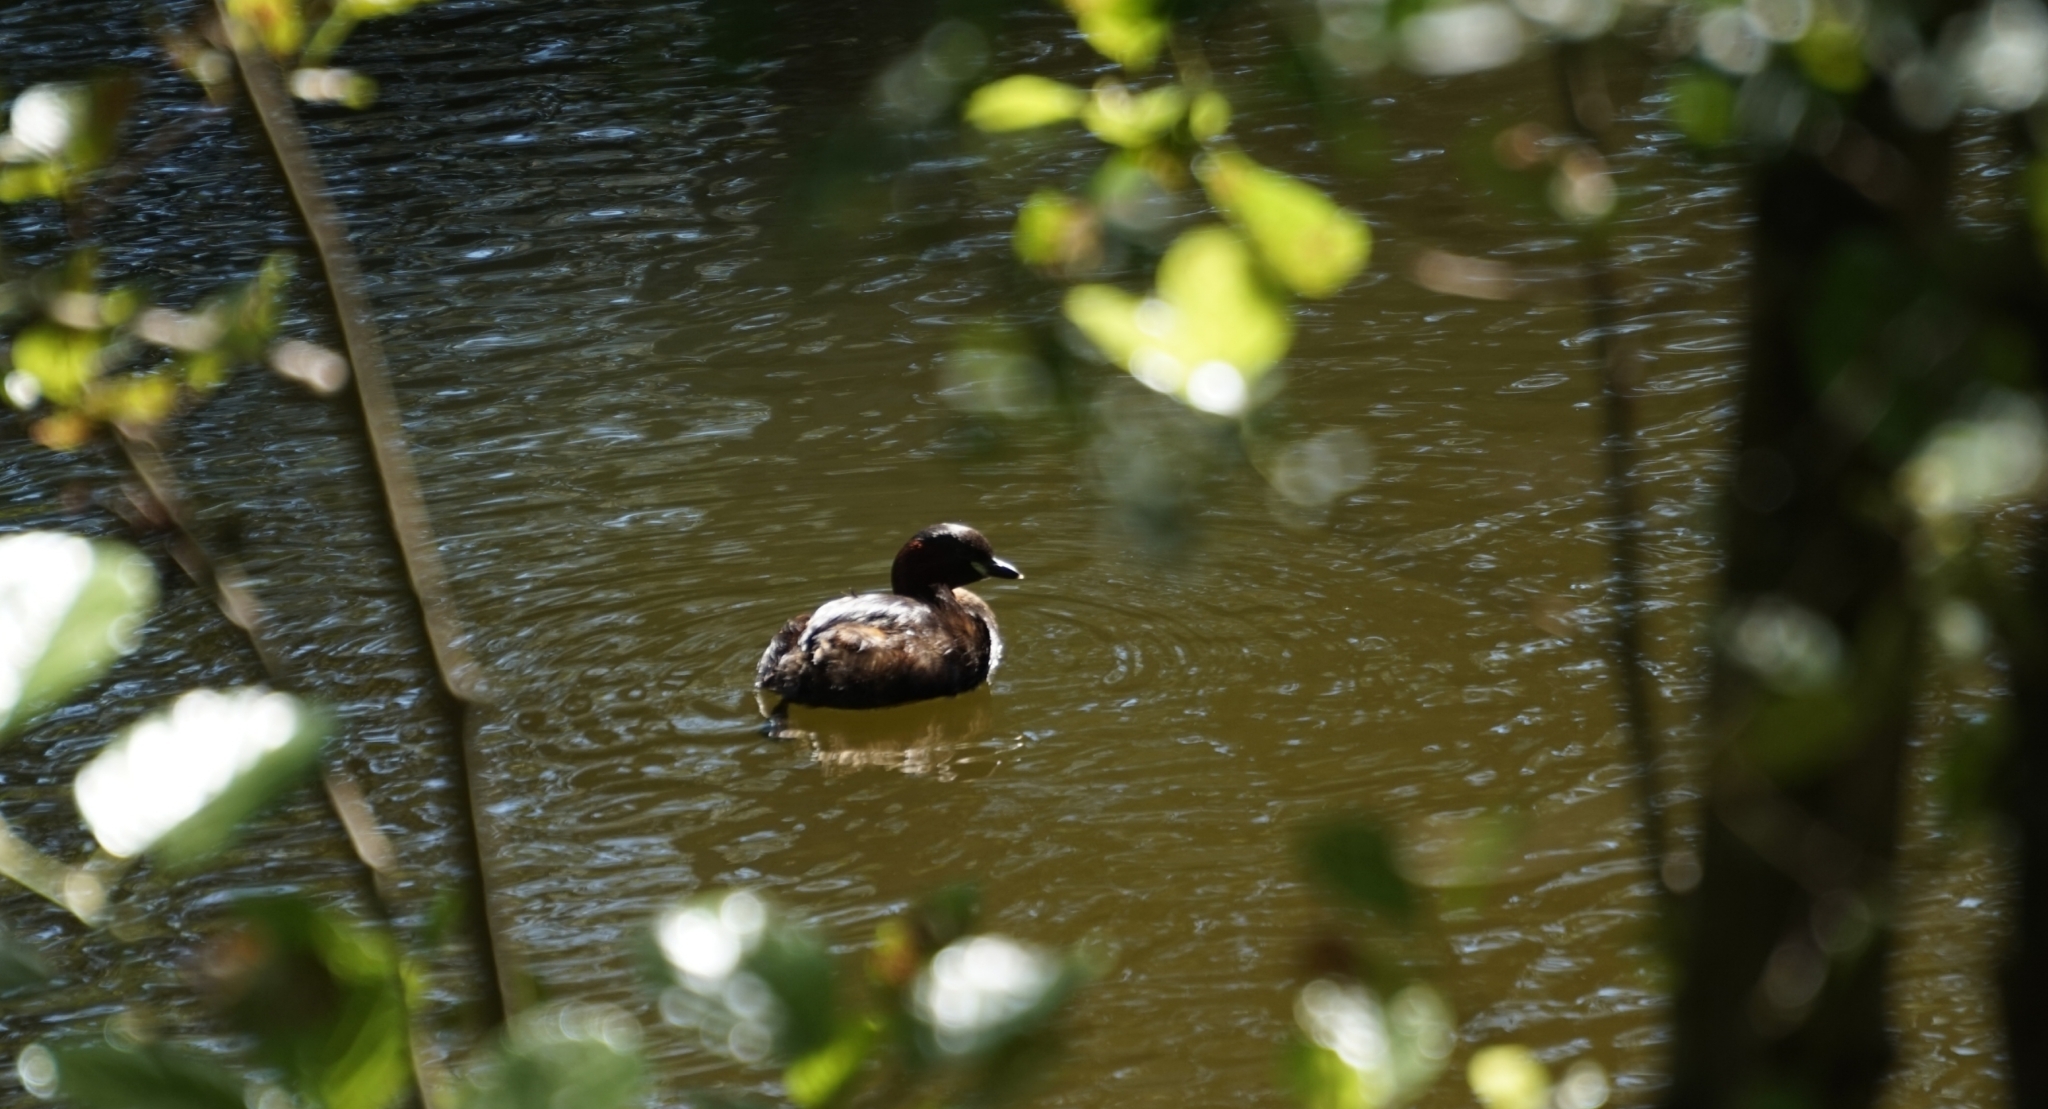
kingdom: Animalia
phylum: Chordata
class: Aves
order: Podicipediformes
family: Podicipedidae
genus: Tachybaptus
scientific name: Tachybaptus ruficollis
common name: Little grebe
